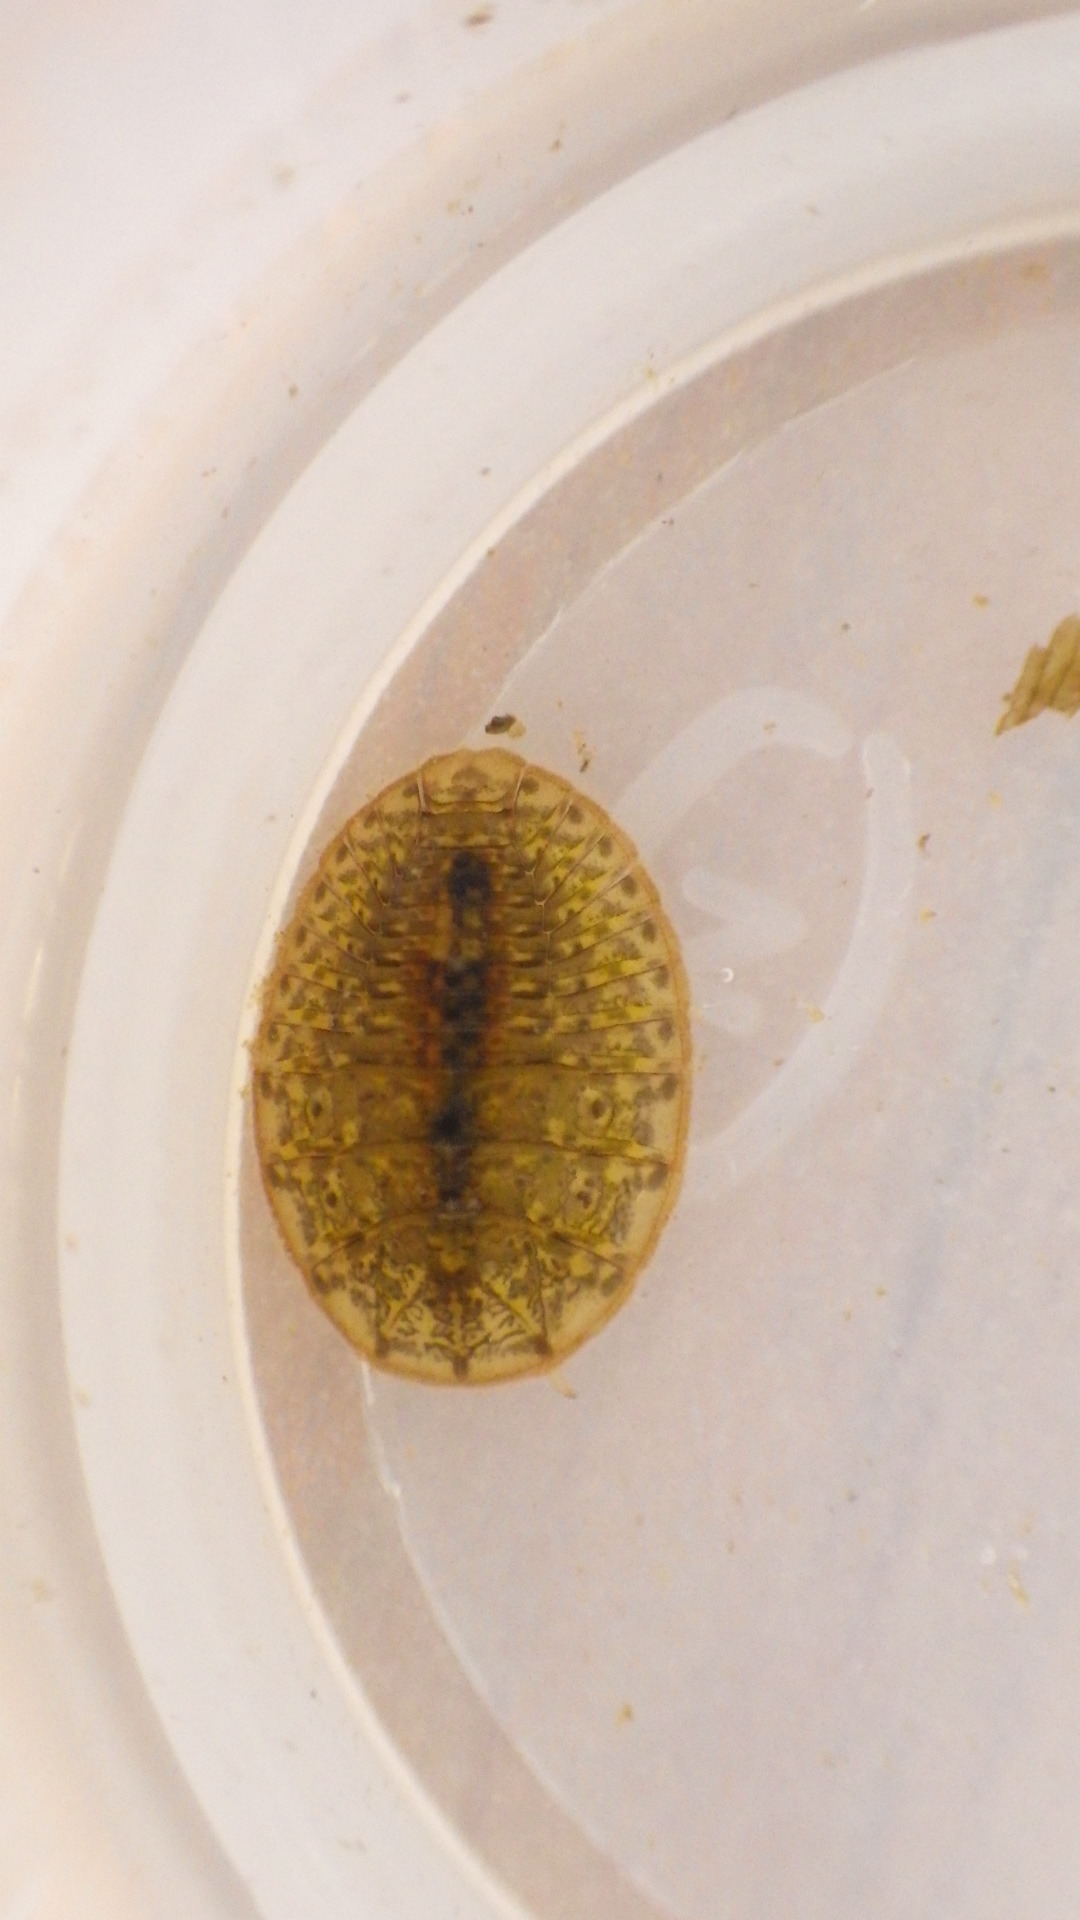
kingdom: Animalia
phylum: Arthropoda
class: Insecta
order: Coleoptera
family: Psephenidae
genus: Psephenus
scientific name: Psephenus herricki
